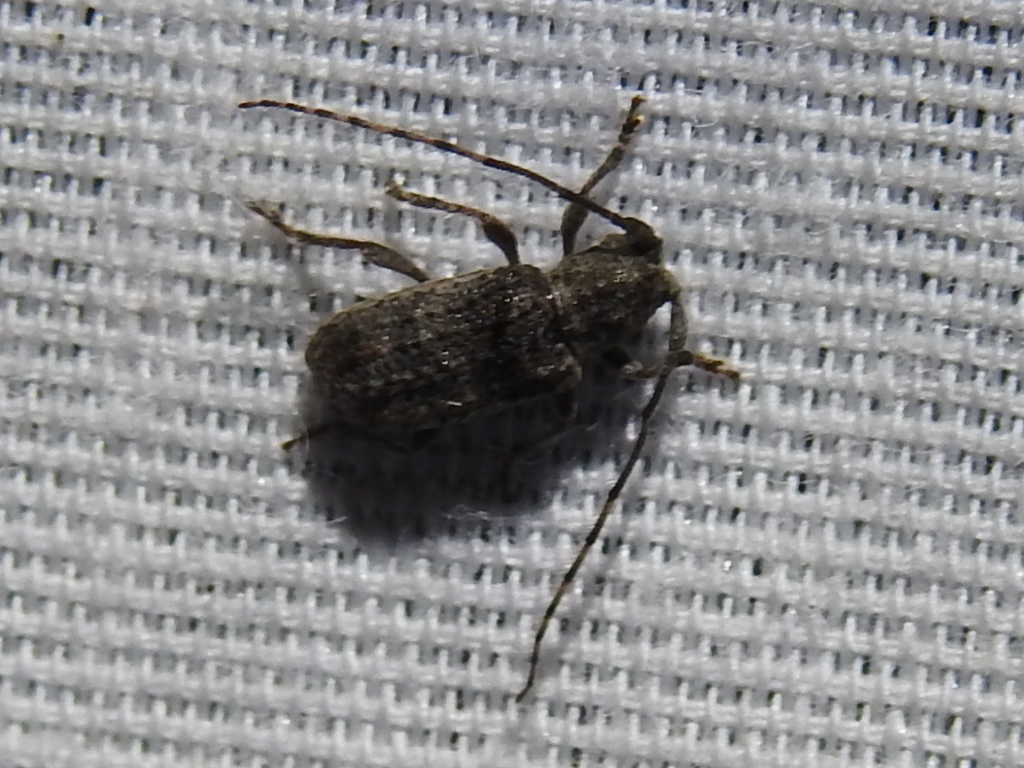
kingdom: Animalia
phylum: Arthropoda
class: Insecta
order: Coleoptera
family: Cerambycidae
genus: Ecyrus
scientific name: Ecyrus dasycerus
